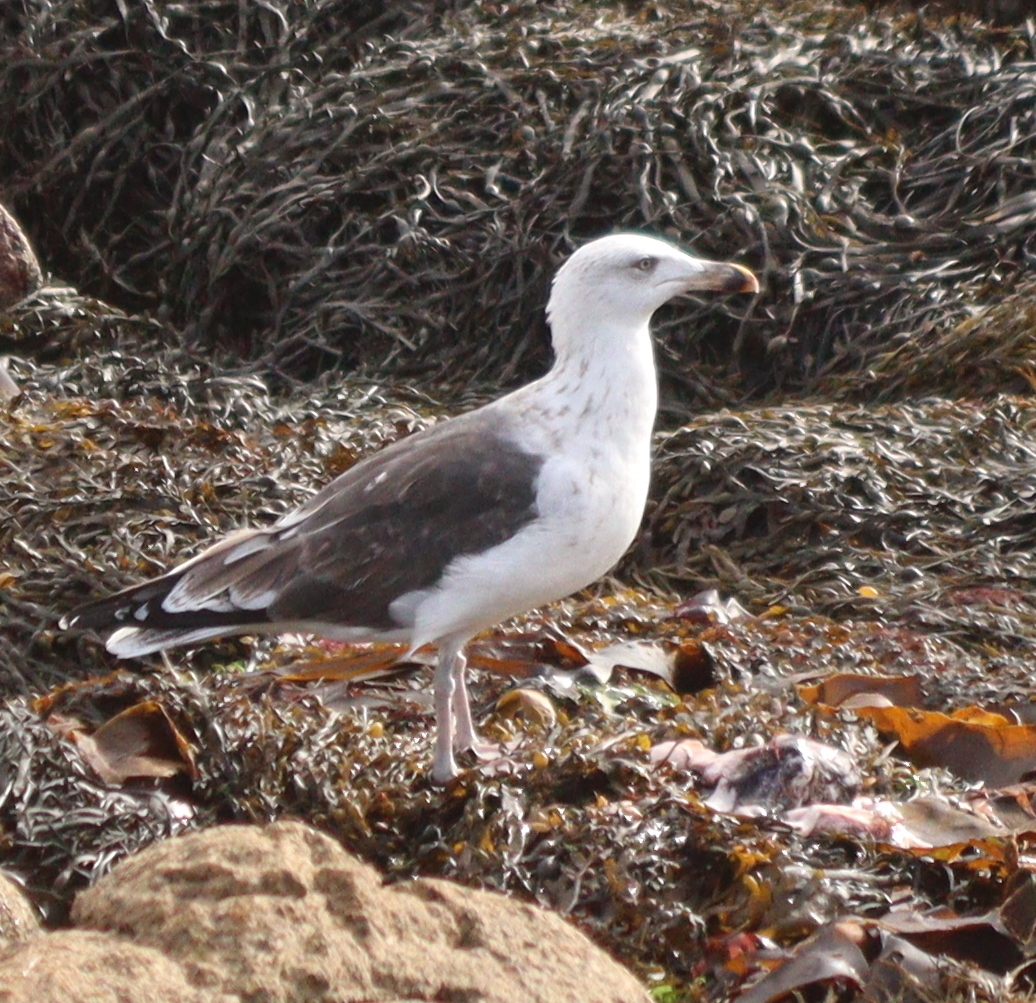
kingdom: Animalia
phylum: Chordata
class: Aves
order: Charadriiformes
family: Laridae
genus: Larus
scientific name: Larus marinus
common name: Great black-backed gull
